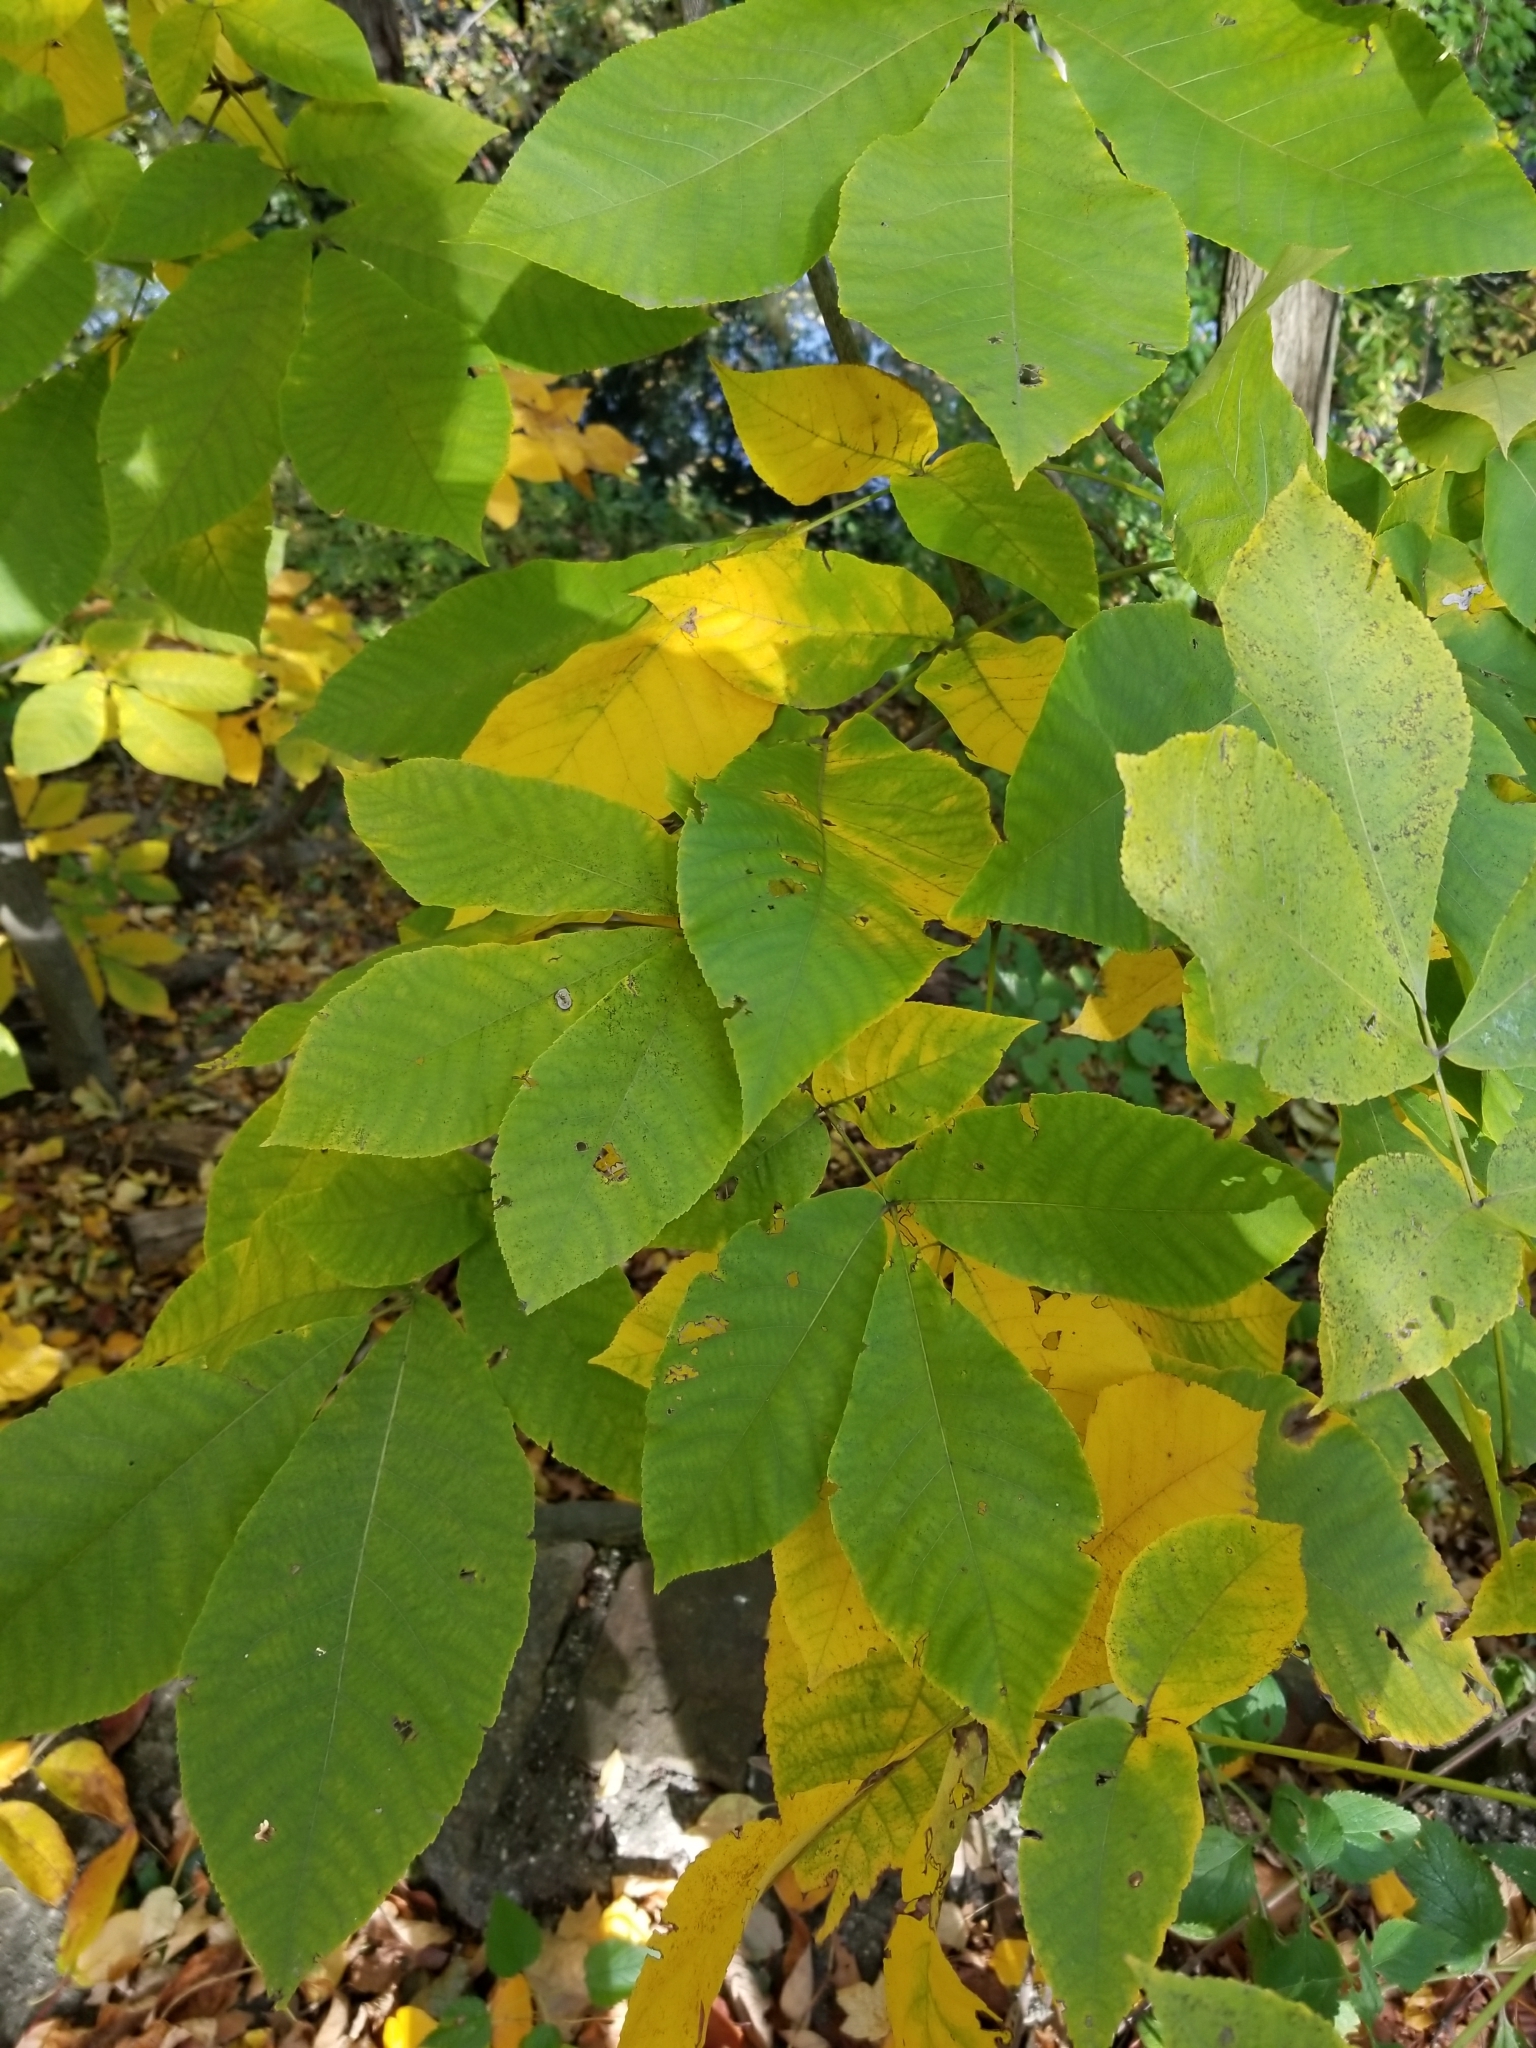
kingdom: Plantae
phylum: Tracheophyta
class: Magnoliopsida
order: Fagales
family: Juglandaceae
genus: Carya
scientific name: Carya
